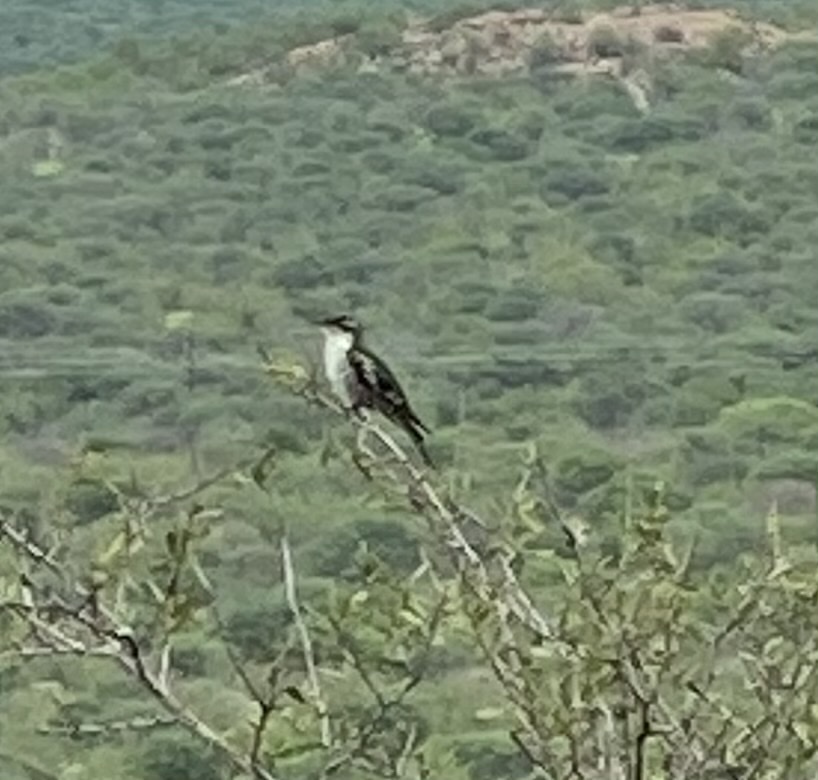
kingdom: Animalia
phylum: Chordata
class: Aves
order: Cuculiformes
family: Cuculidae
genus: Chrysococcyx
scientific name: Chrysococcyx caprius
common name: Diederik cuckoo
